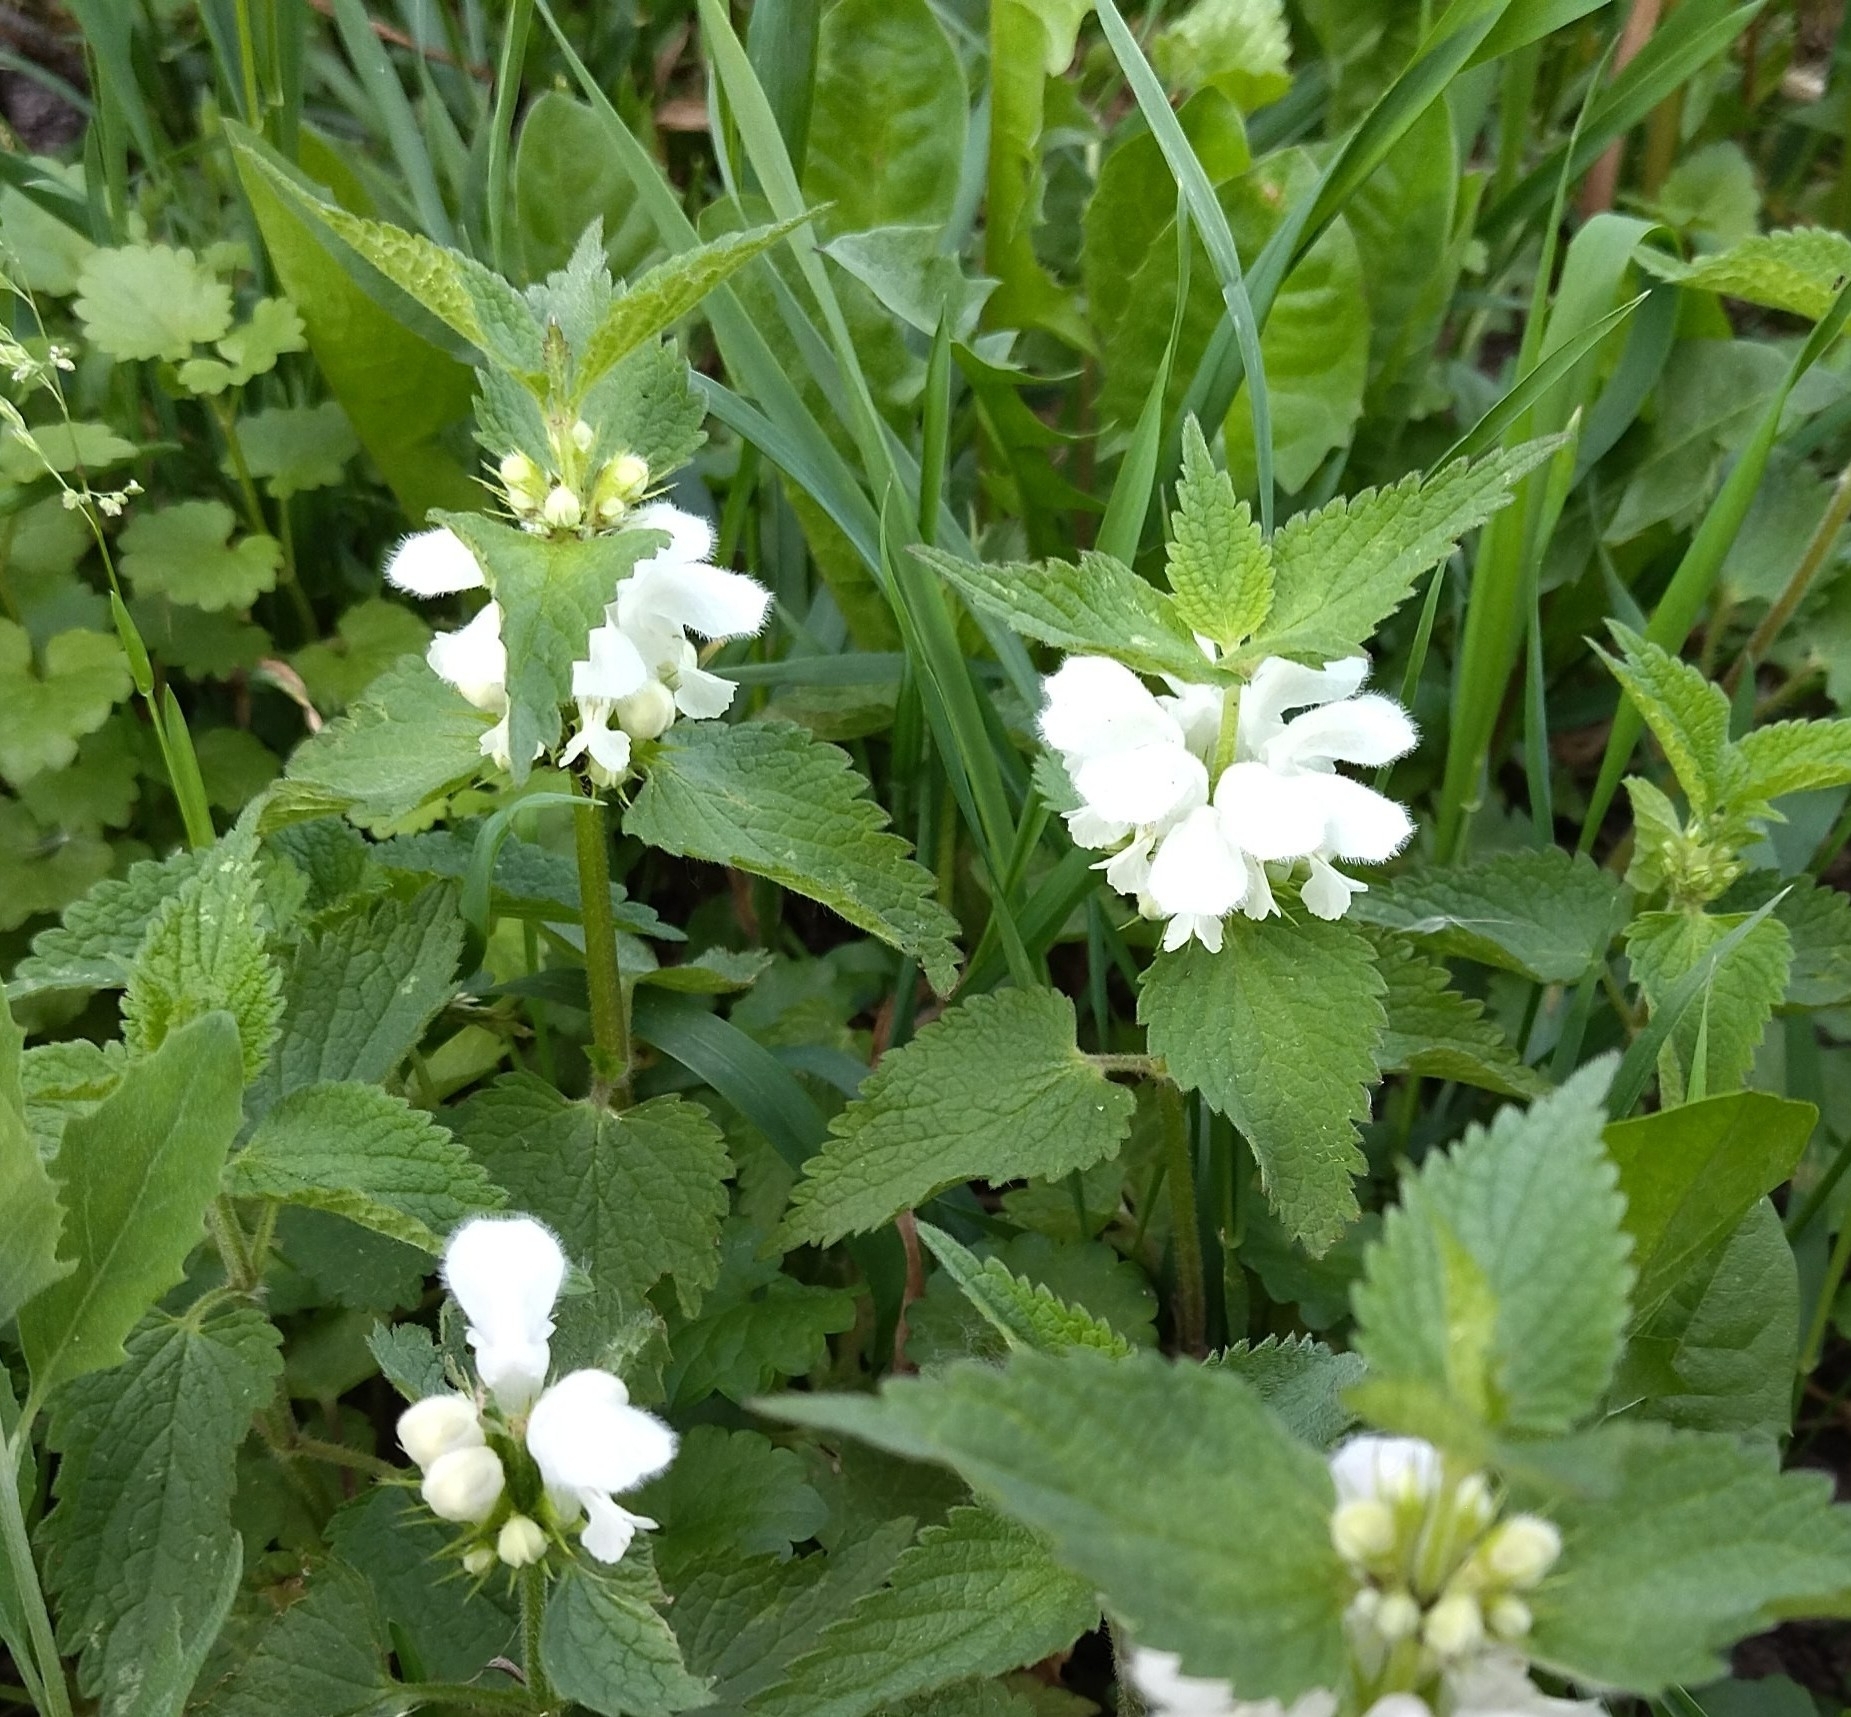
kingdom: Plantae
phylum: Tracheophyta
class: Magnoliopsida
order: Lamiales
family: Lamiaceae
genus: Lamium
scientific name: Lamium album
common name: White dead-nettle
